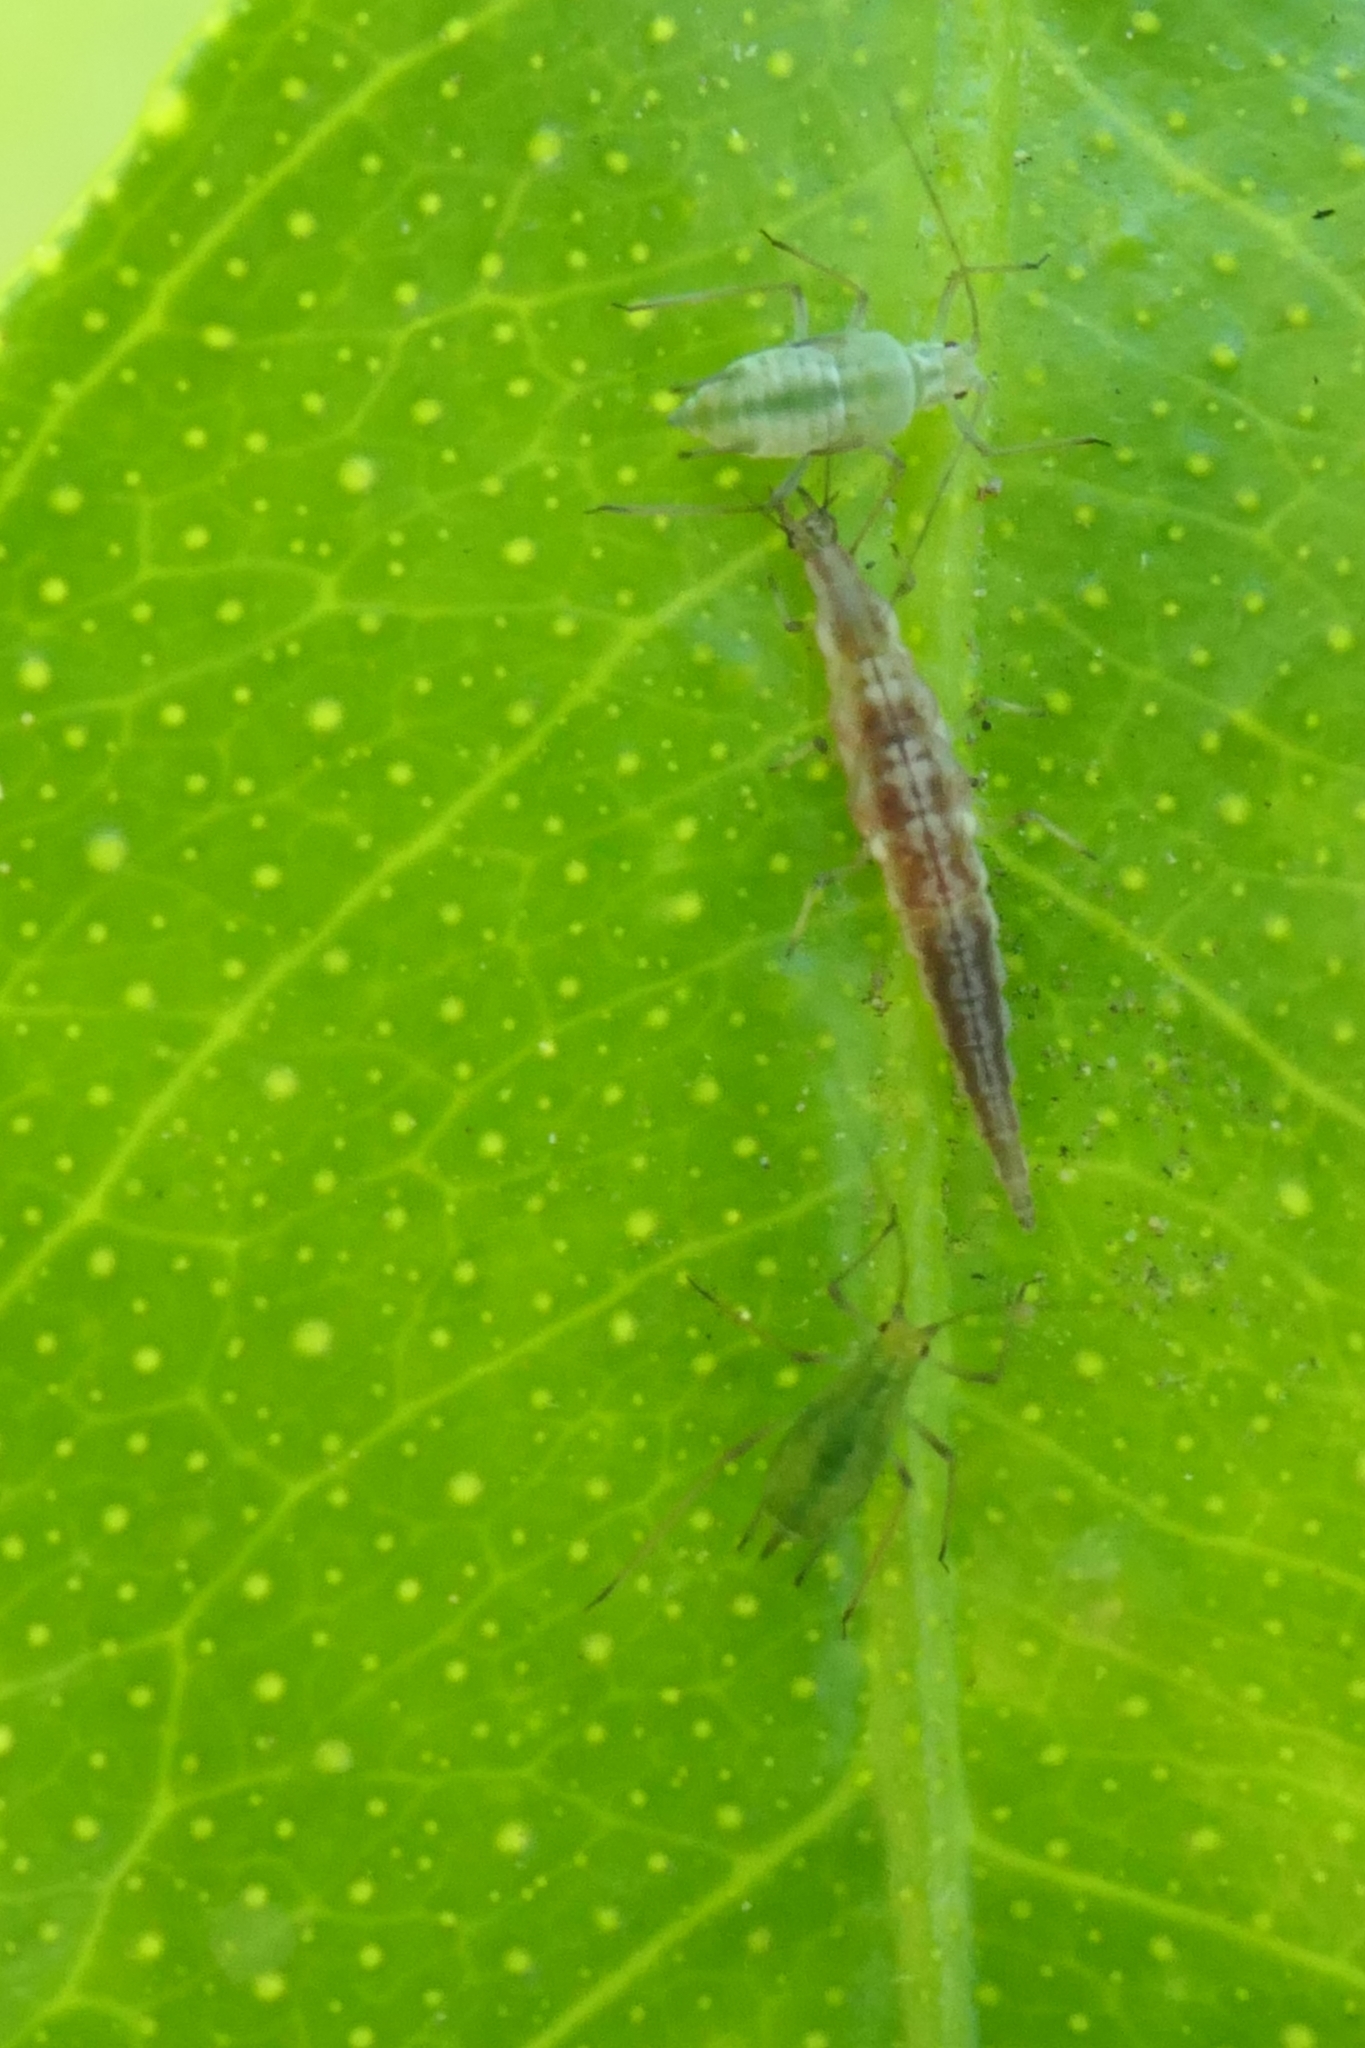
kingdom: Animalia
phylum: Arthropoda
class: Insecta
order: Neuroptera
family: Hemerobiidae
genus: Micromus
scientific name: Micromus tasmaniae
